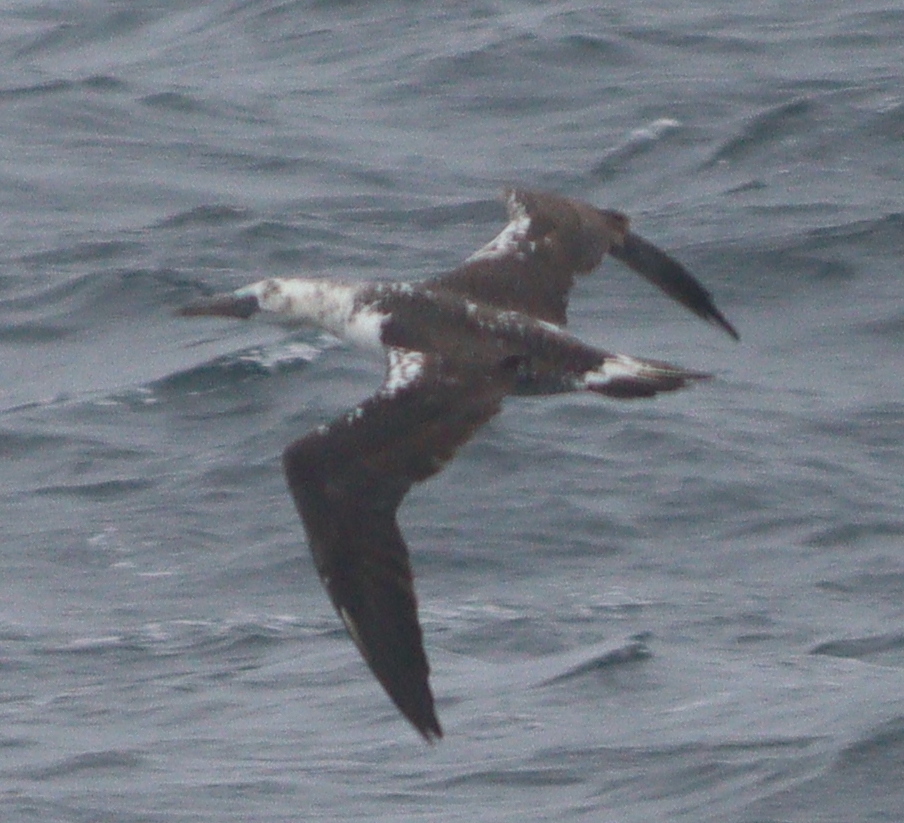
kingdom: Animalia
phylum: Chordata
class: Aves
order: Suliformes
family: Sulidae
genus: Morus
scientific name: Morus bassanus
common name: Northern gannet
